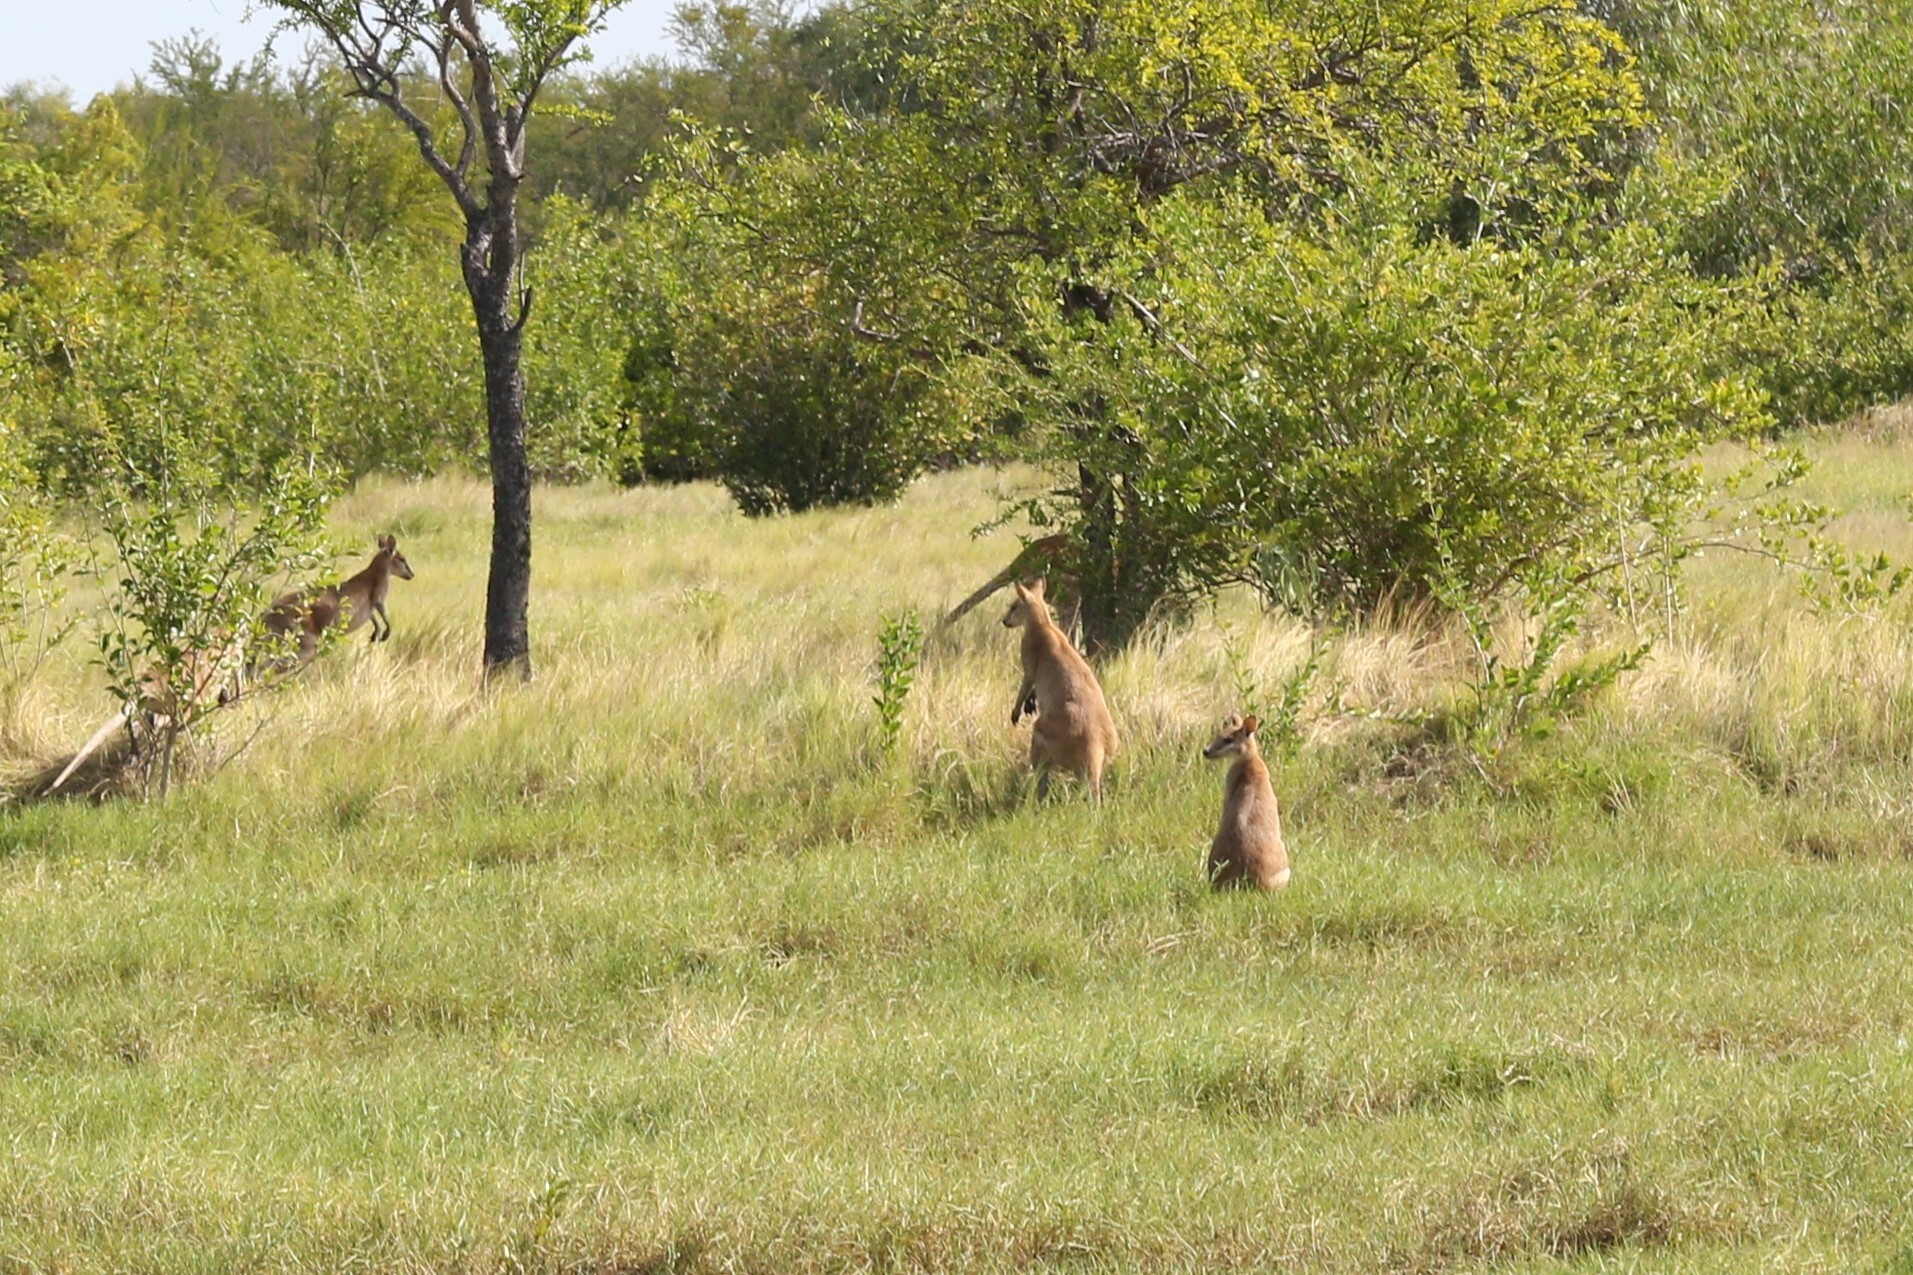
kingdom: Animalia
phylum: Chordata
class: Mammalia
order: Diprotodontia
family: Macropodidae
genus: Macropus
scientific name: Macropus agilis
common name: Agile wallaby
